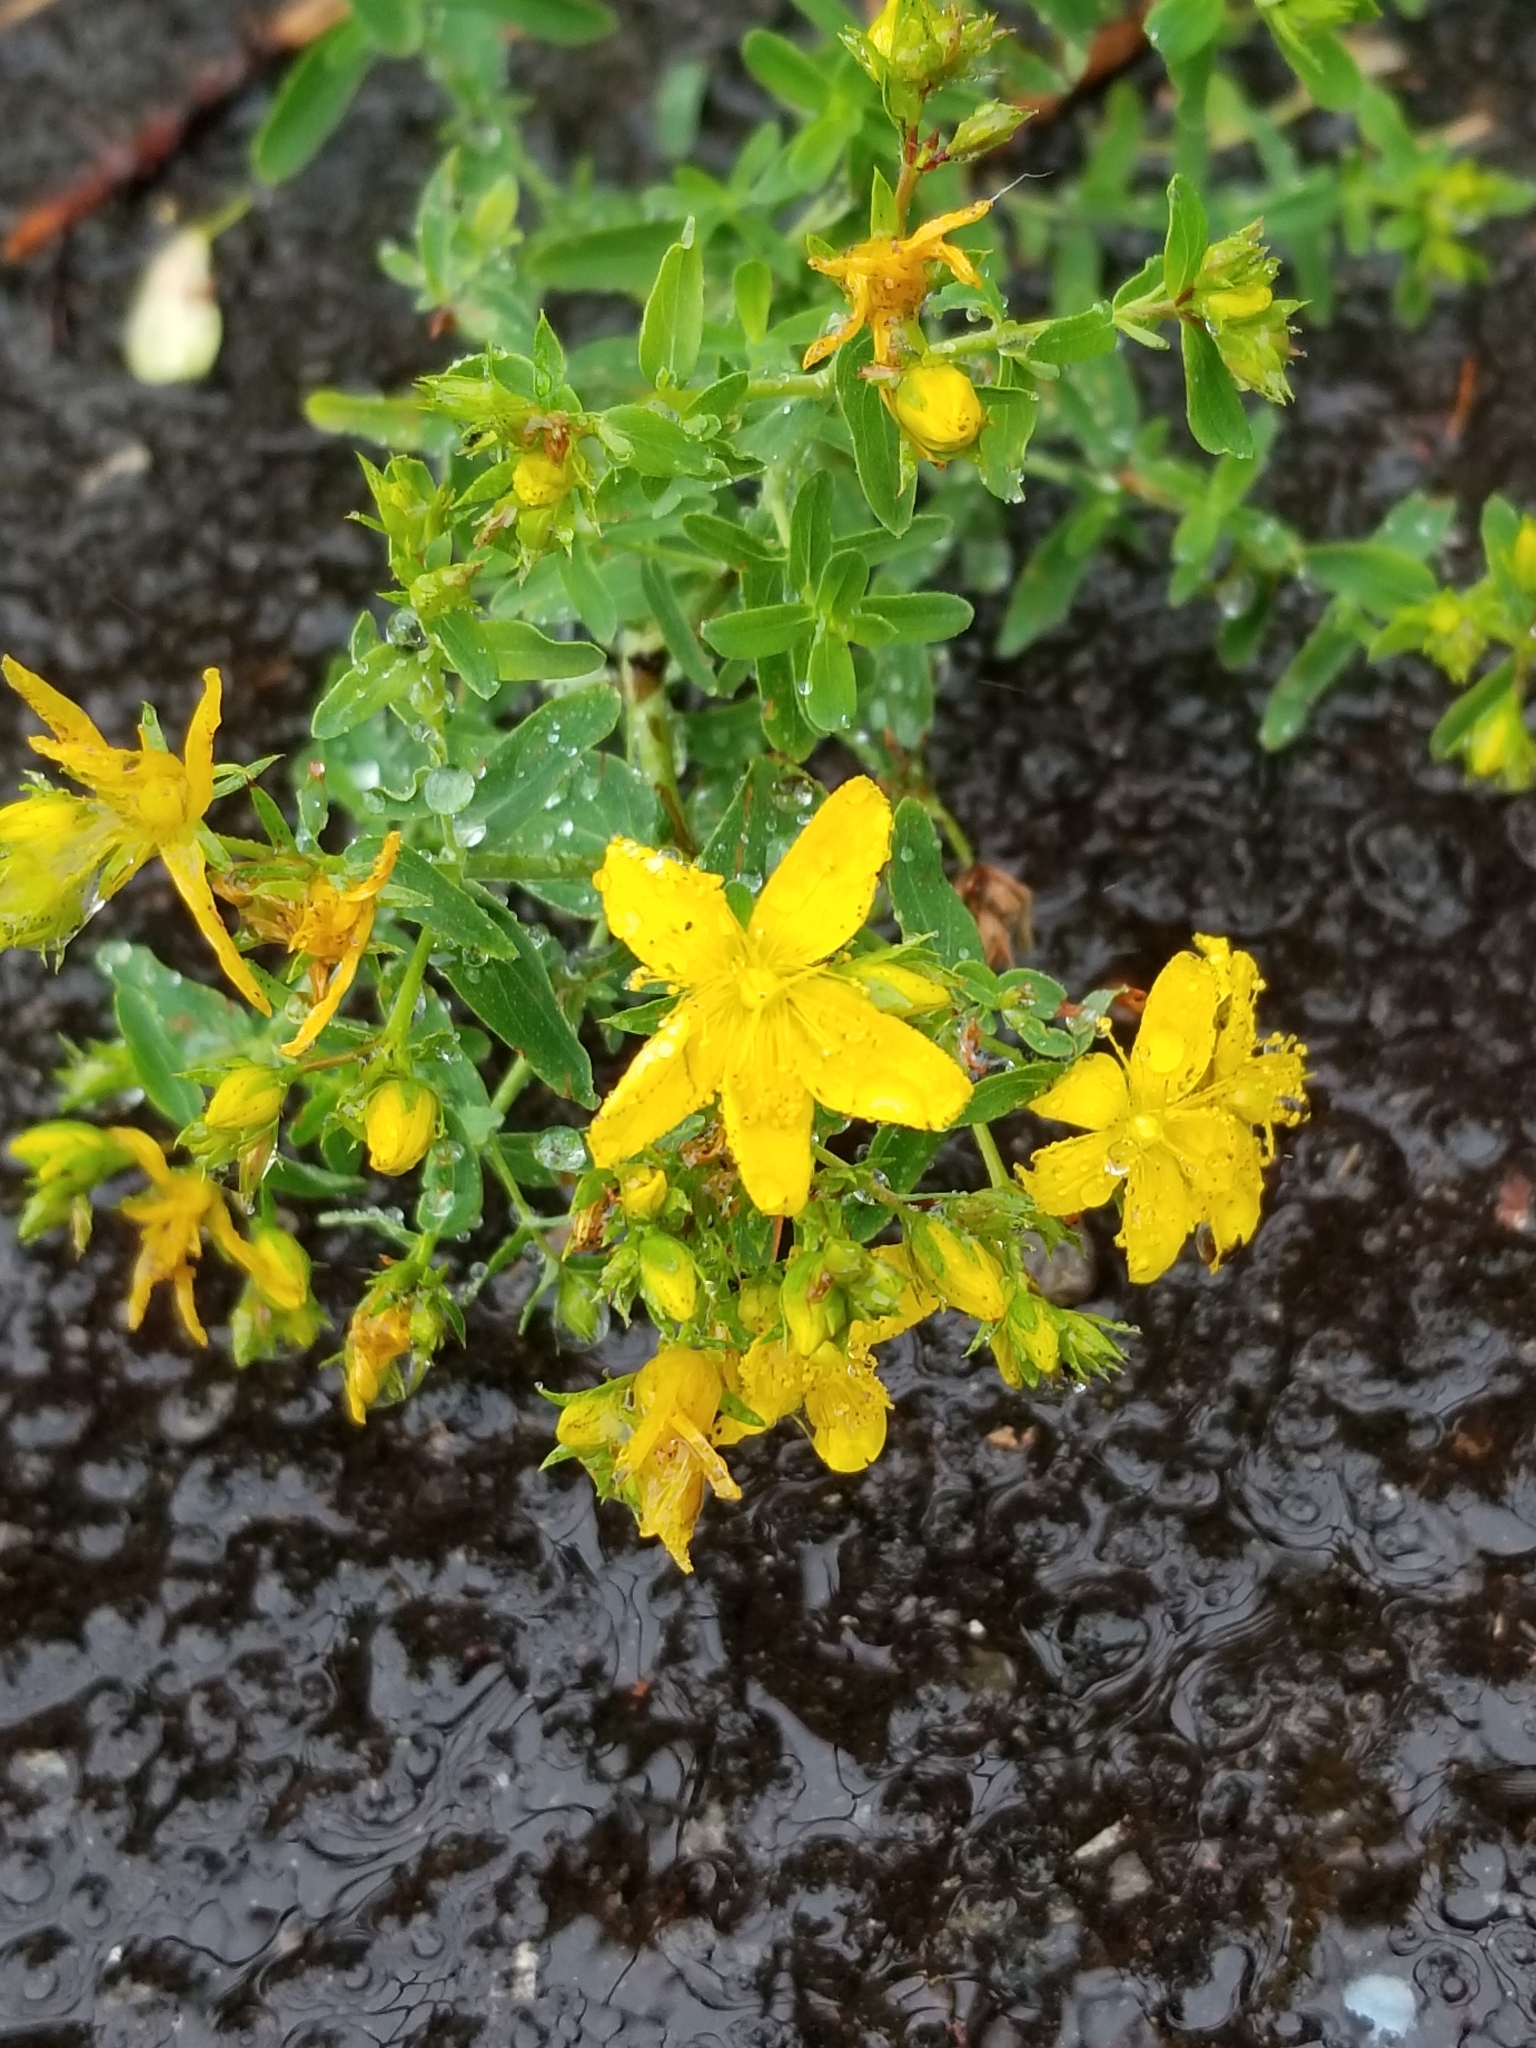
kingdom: Plantae
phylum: Tracheophyta
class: Magnoliopsida
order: Malpighiales
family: Hypericaceae
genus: Hypericum
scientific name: Hypericum perforatum
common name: Common st. johnswort
